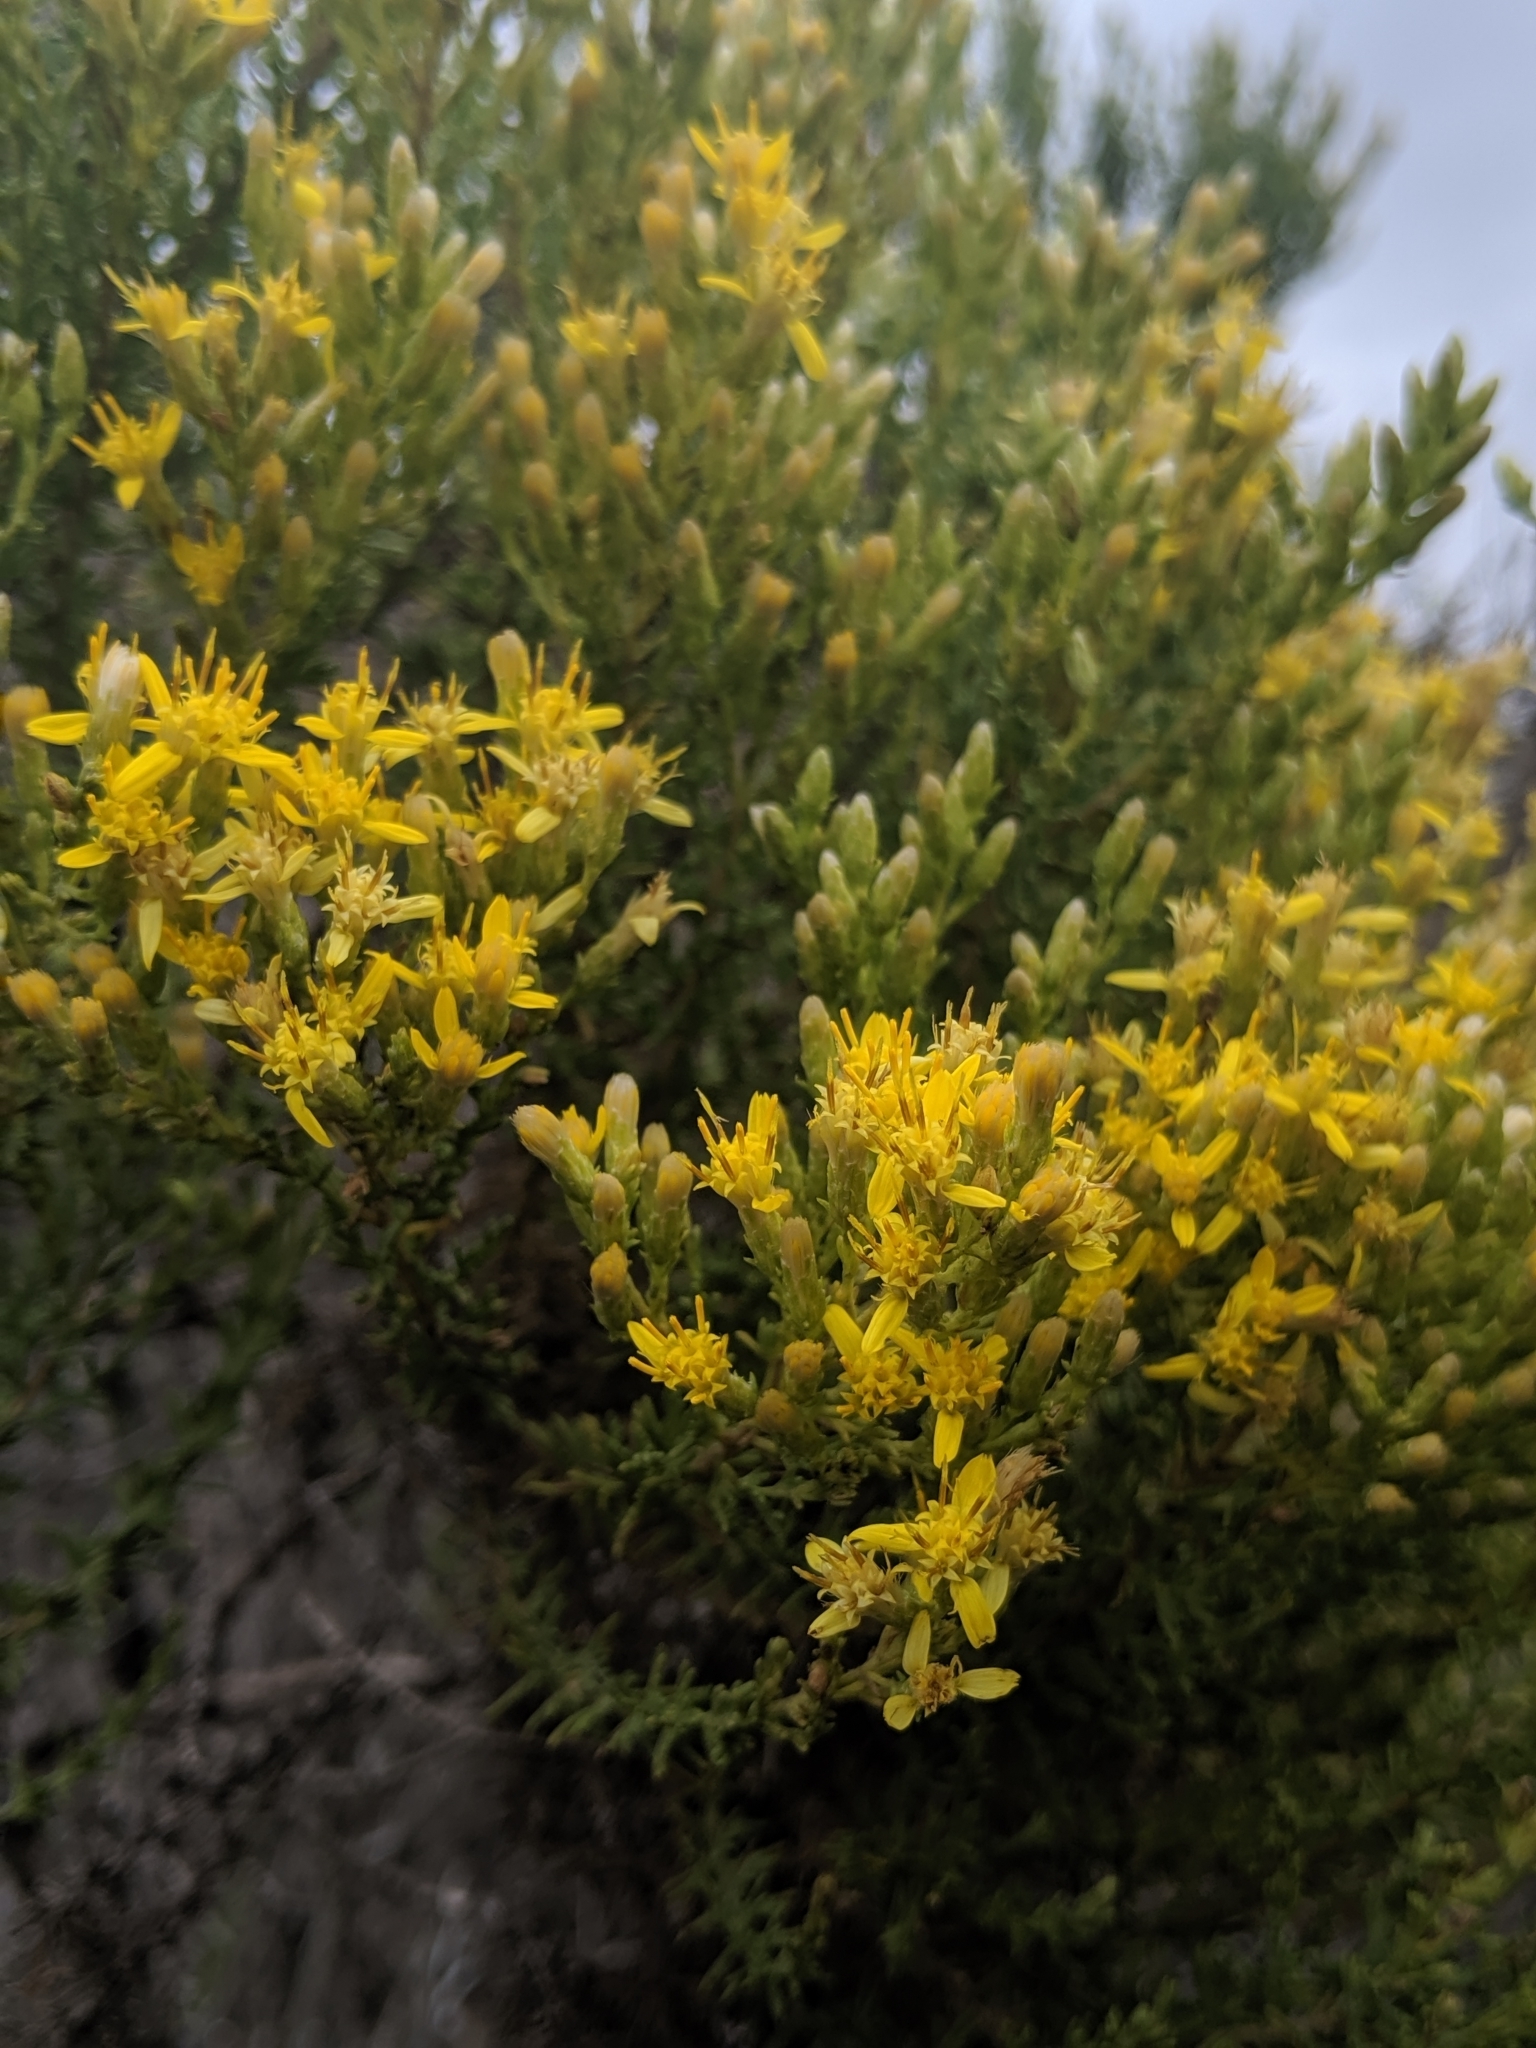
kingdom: Plantae
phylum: Tracheophyta
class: Magnoliopsida
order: Asterales
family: Asteraceae
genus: Ericameria
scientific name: Ericameria ericoides
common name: California goldenbush
